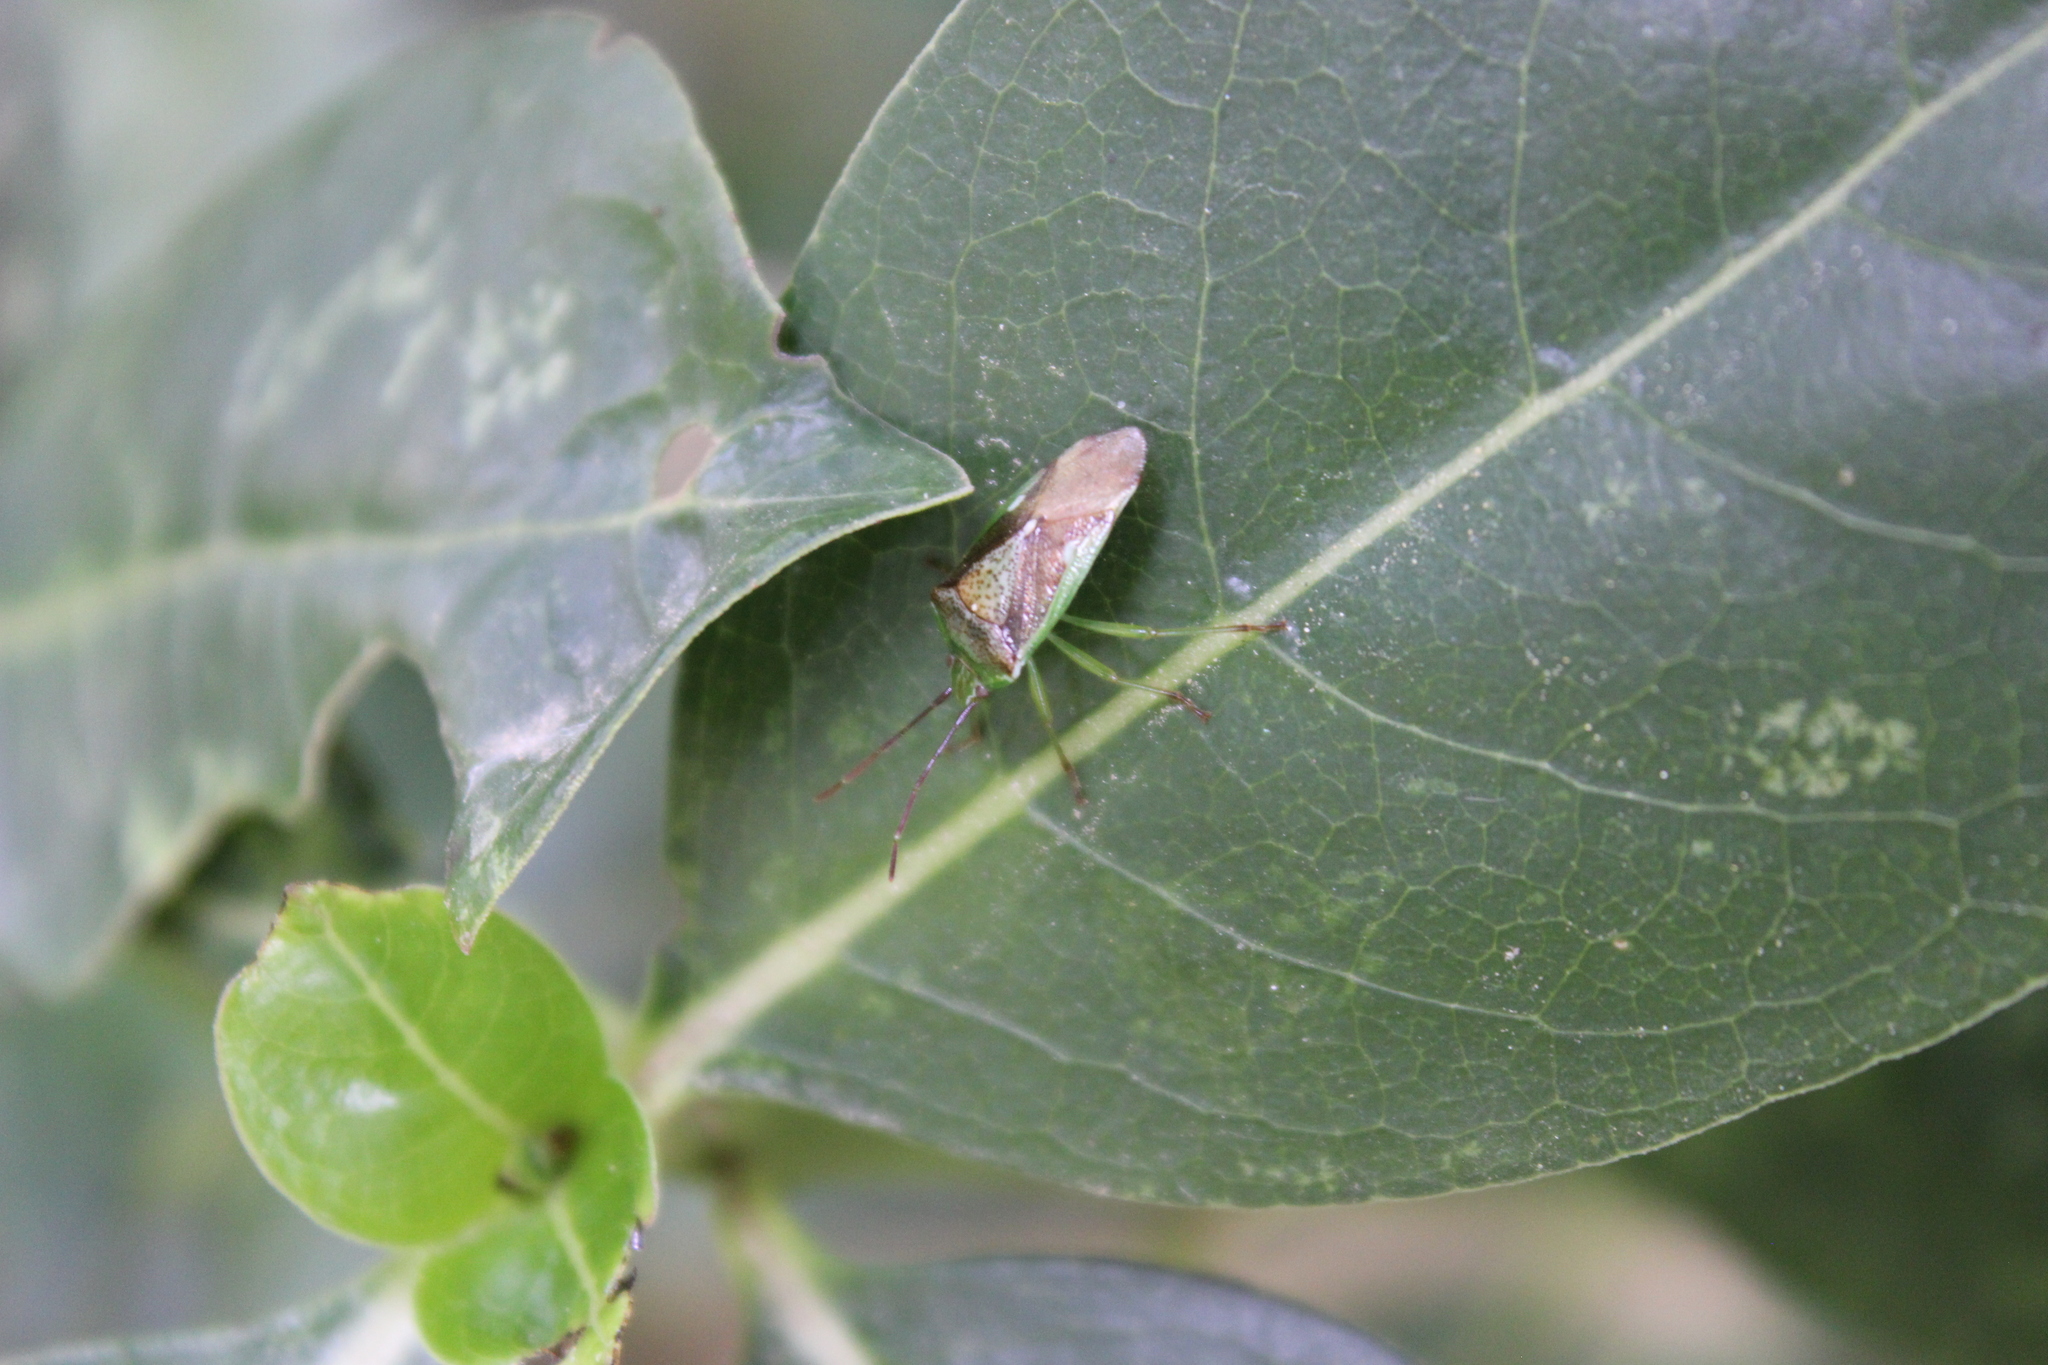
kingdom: Animalia
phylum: Arthropoda
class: Insecta
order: Hemiptera
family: Acanthosomatidae
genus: Oncacontias
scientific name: Oncacontias vittatus
